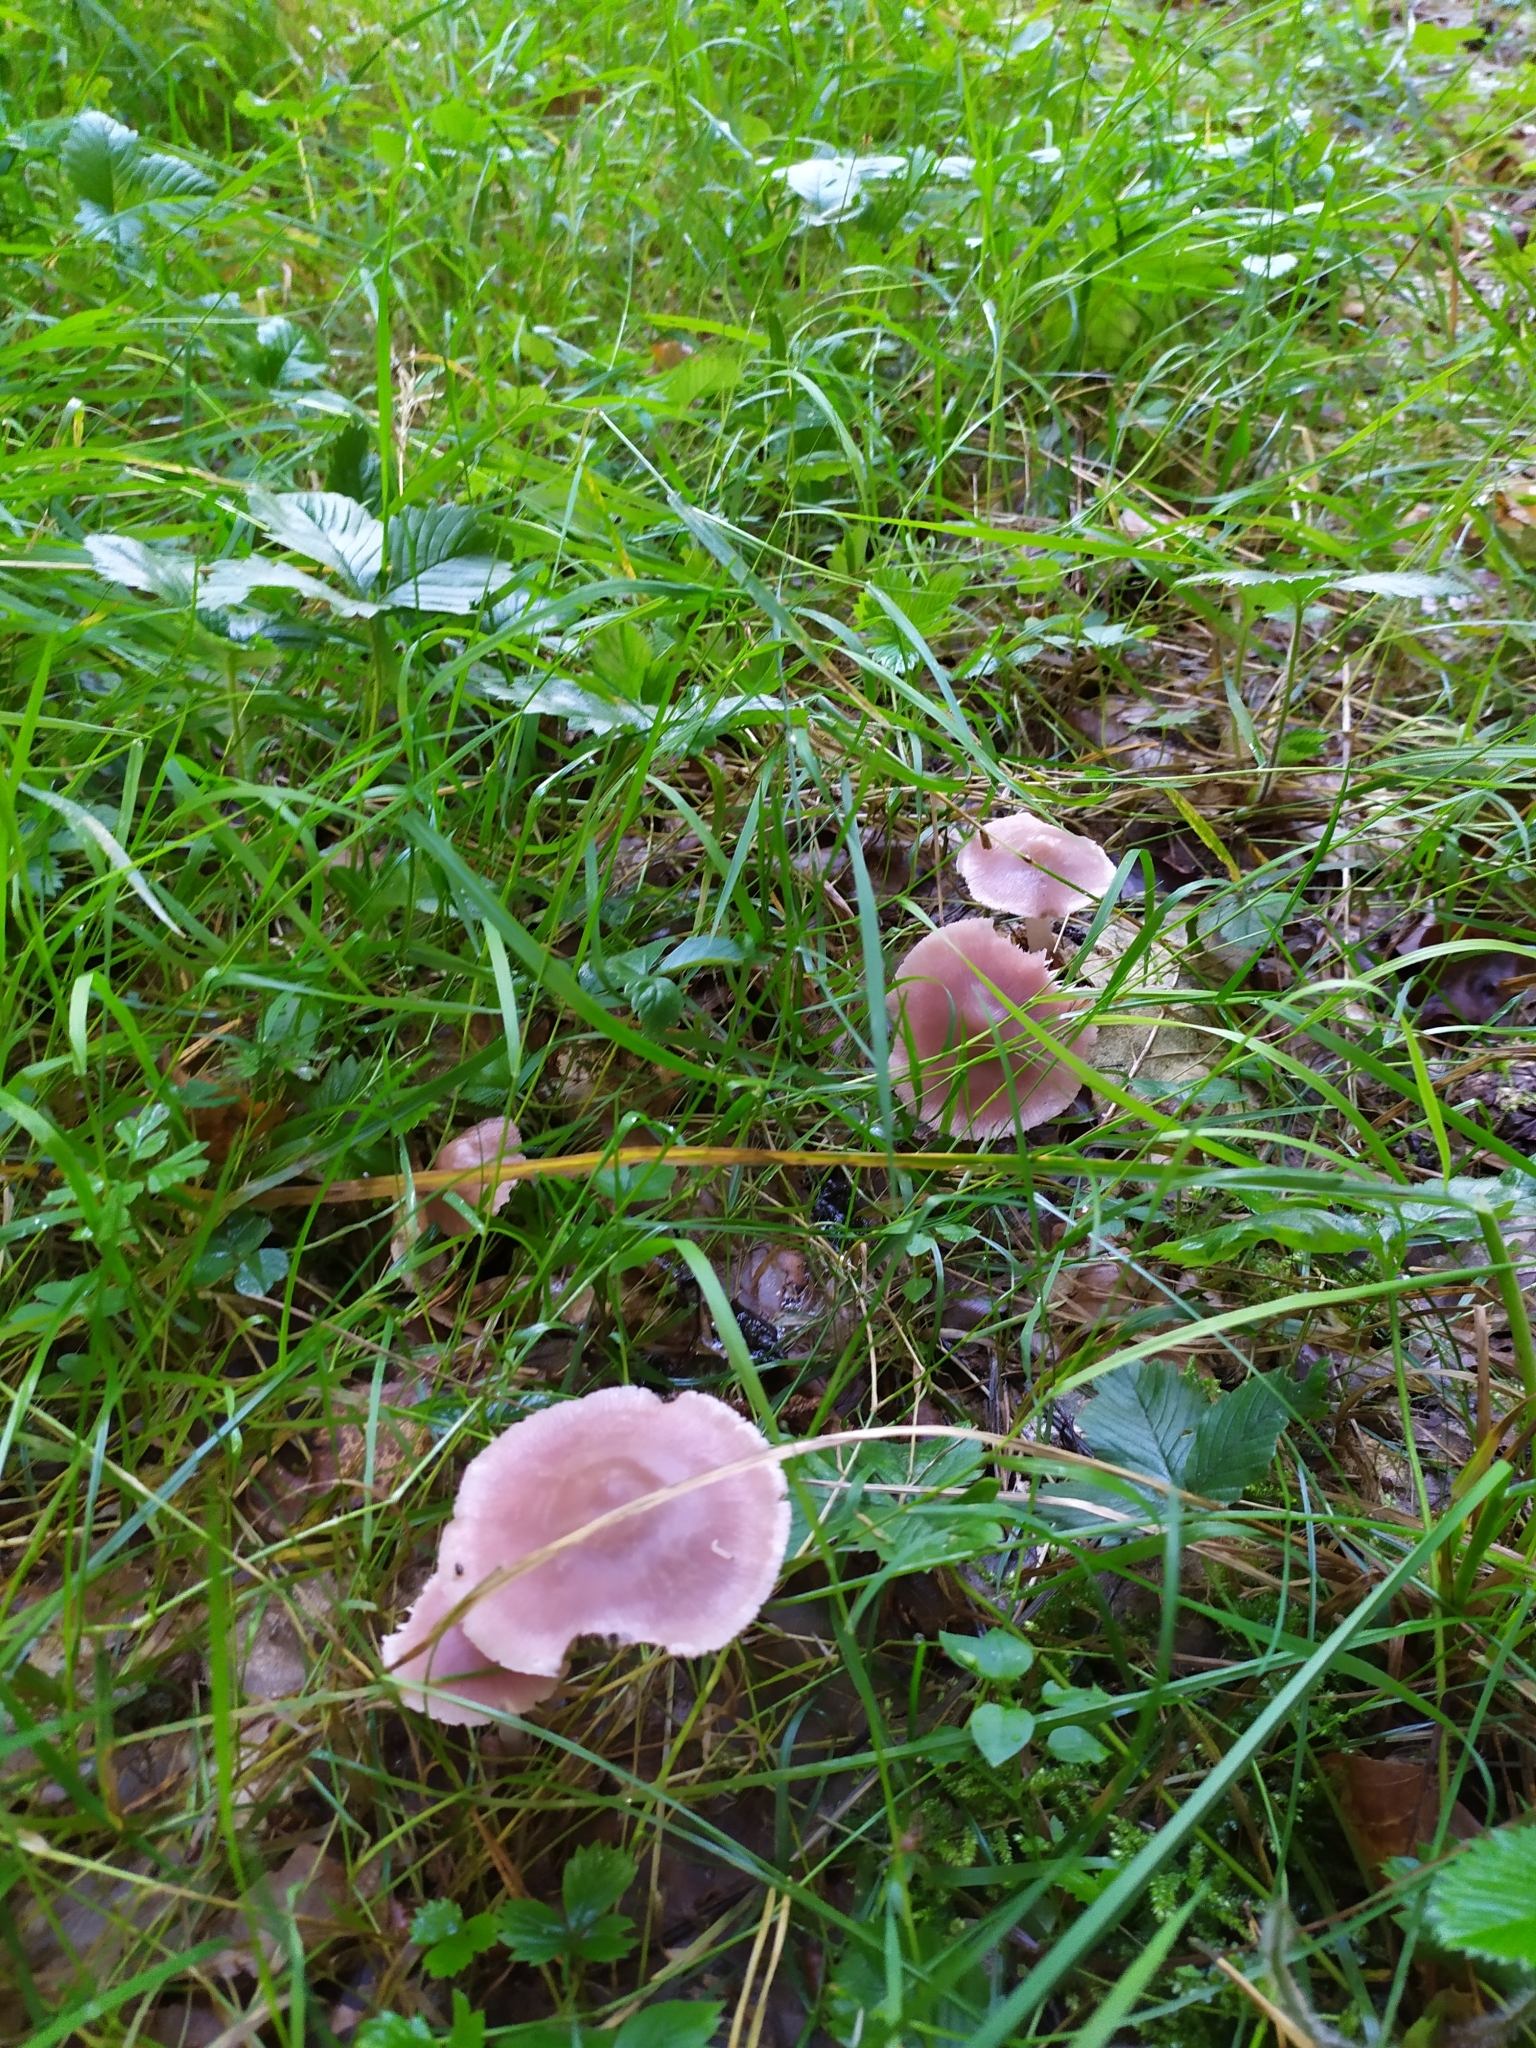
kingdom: Fungi
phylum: Basidiomycota
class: Agaricomycetes
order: Agaricales
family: Mycenaceae
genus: Mycena
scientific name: Mycena rosea
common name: Rosy bonnet
